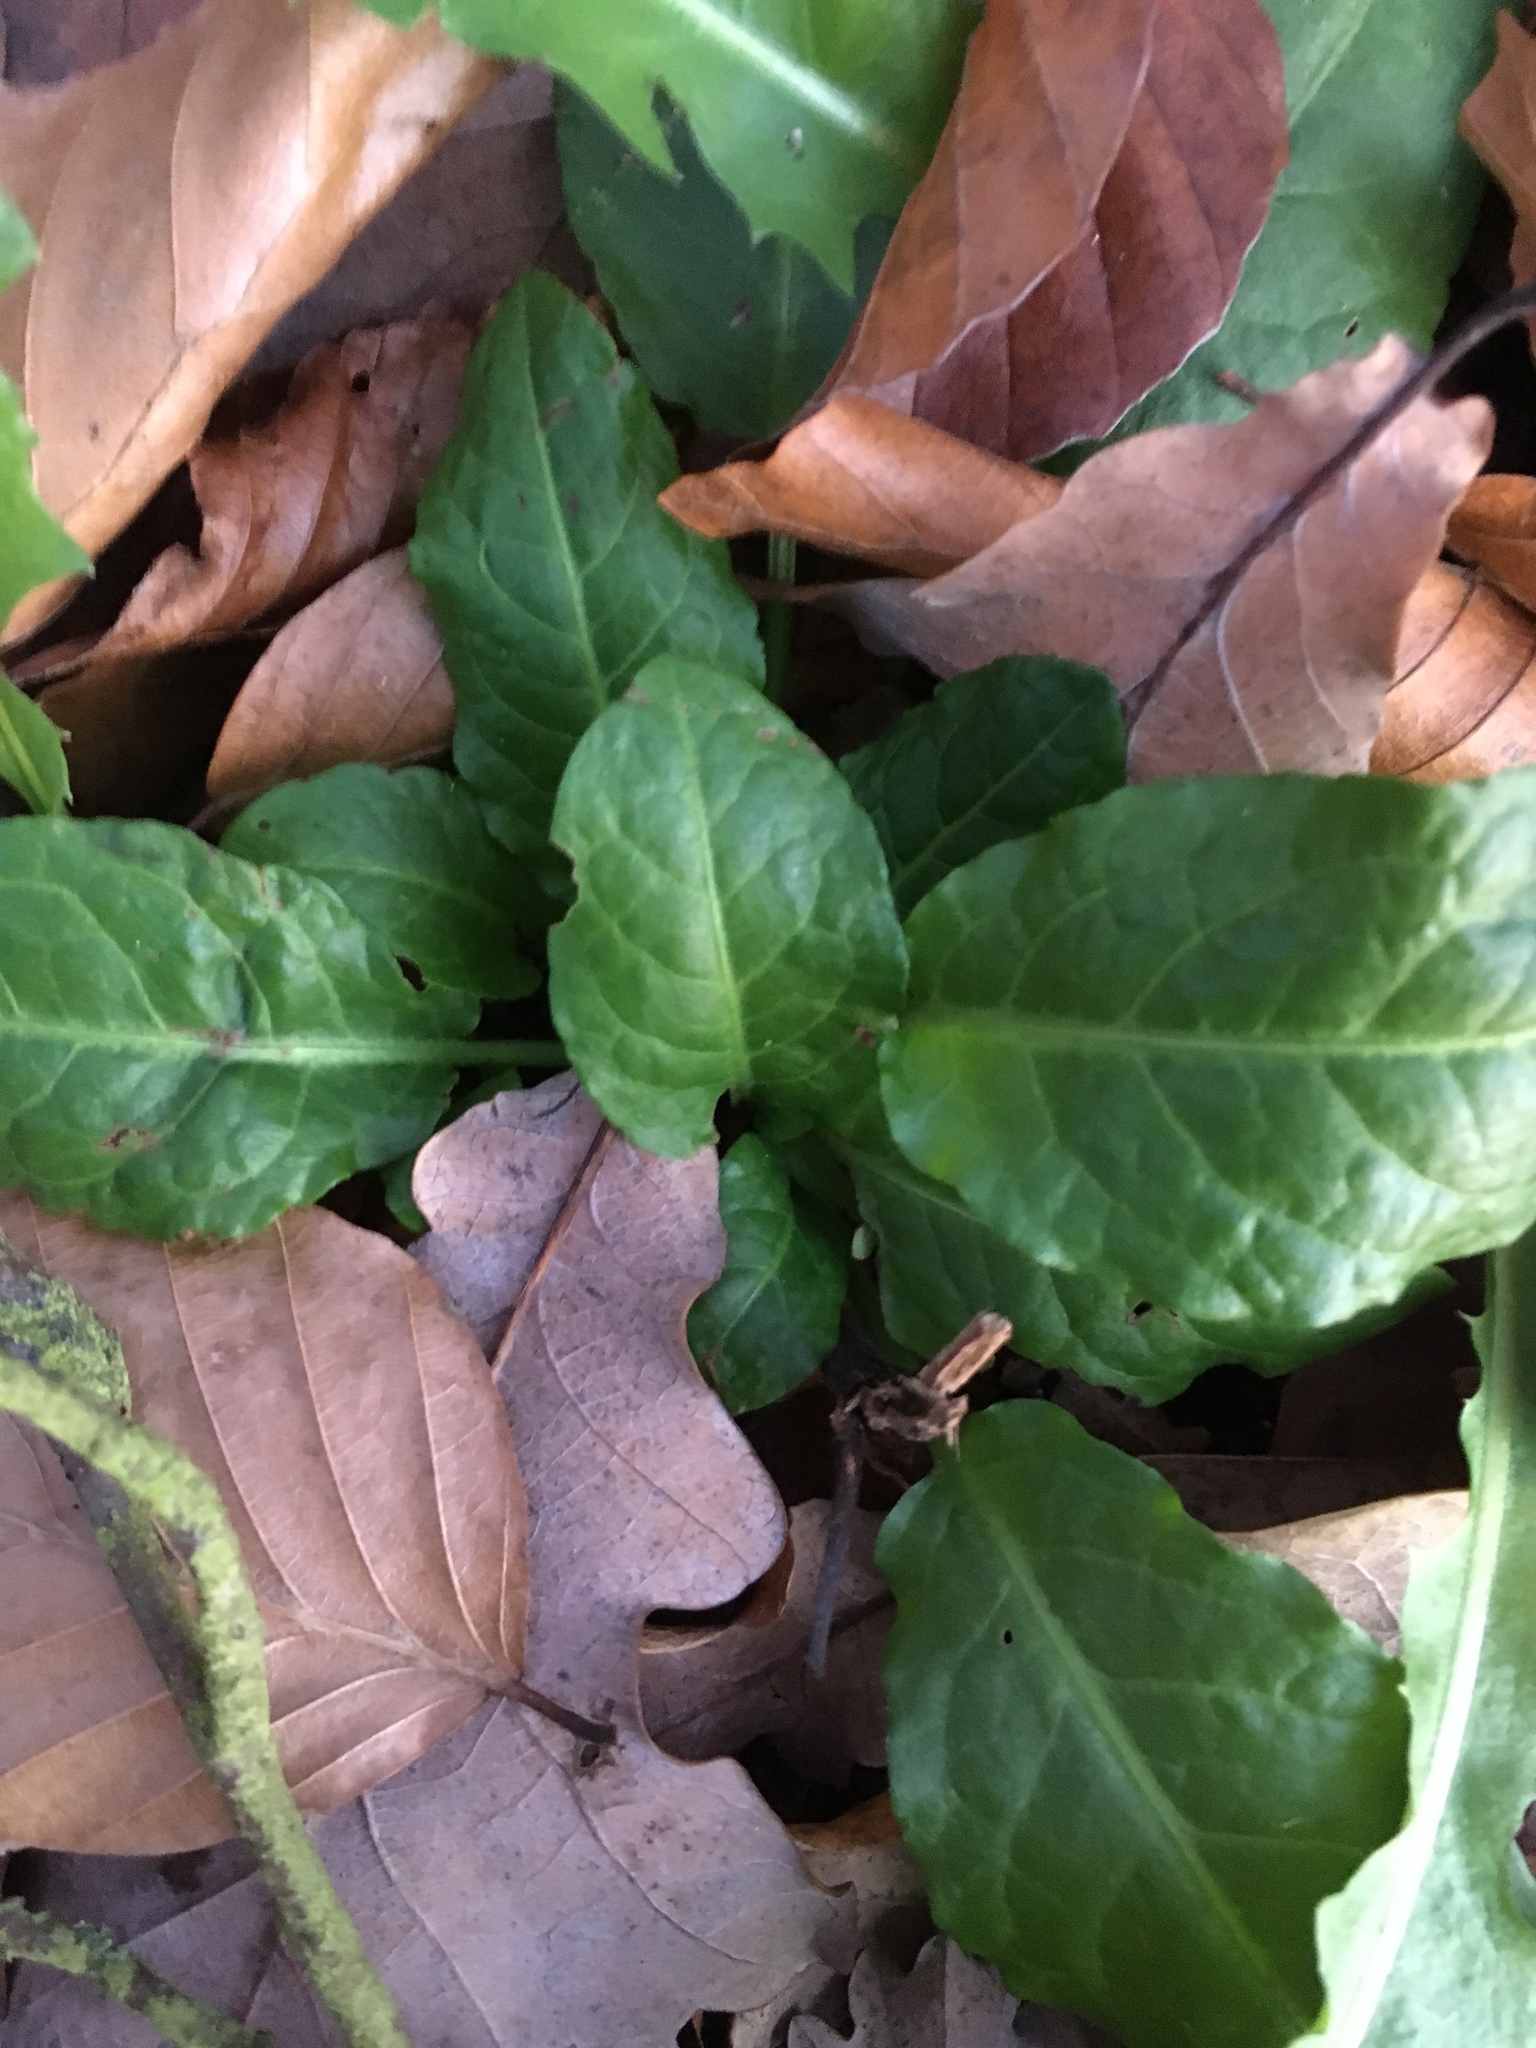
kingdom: Plantae
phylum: Tracheophyta
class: Magnoliopsida
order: Lamiales
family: Lamiaceae
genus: Ajuga
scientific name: Ajuga reptans
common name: Bugle
